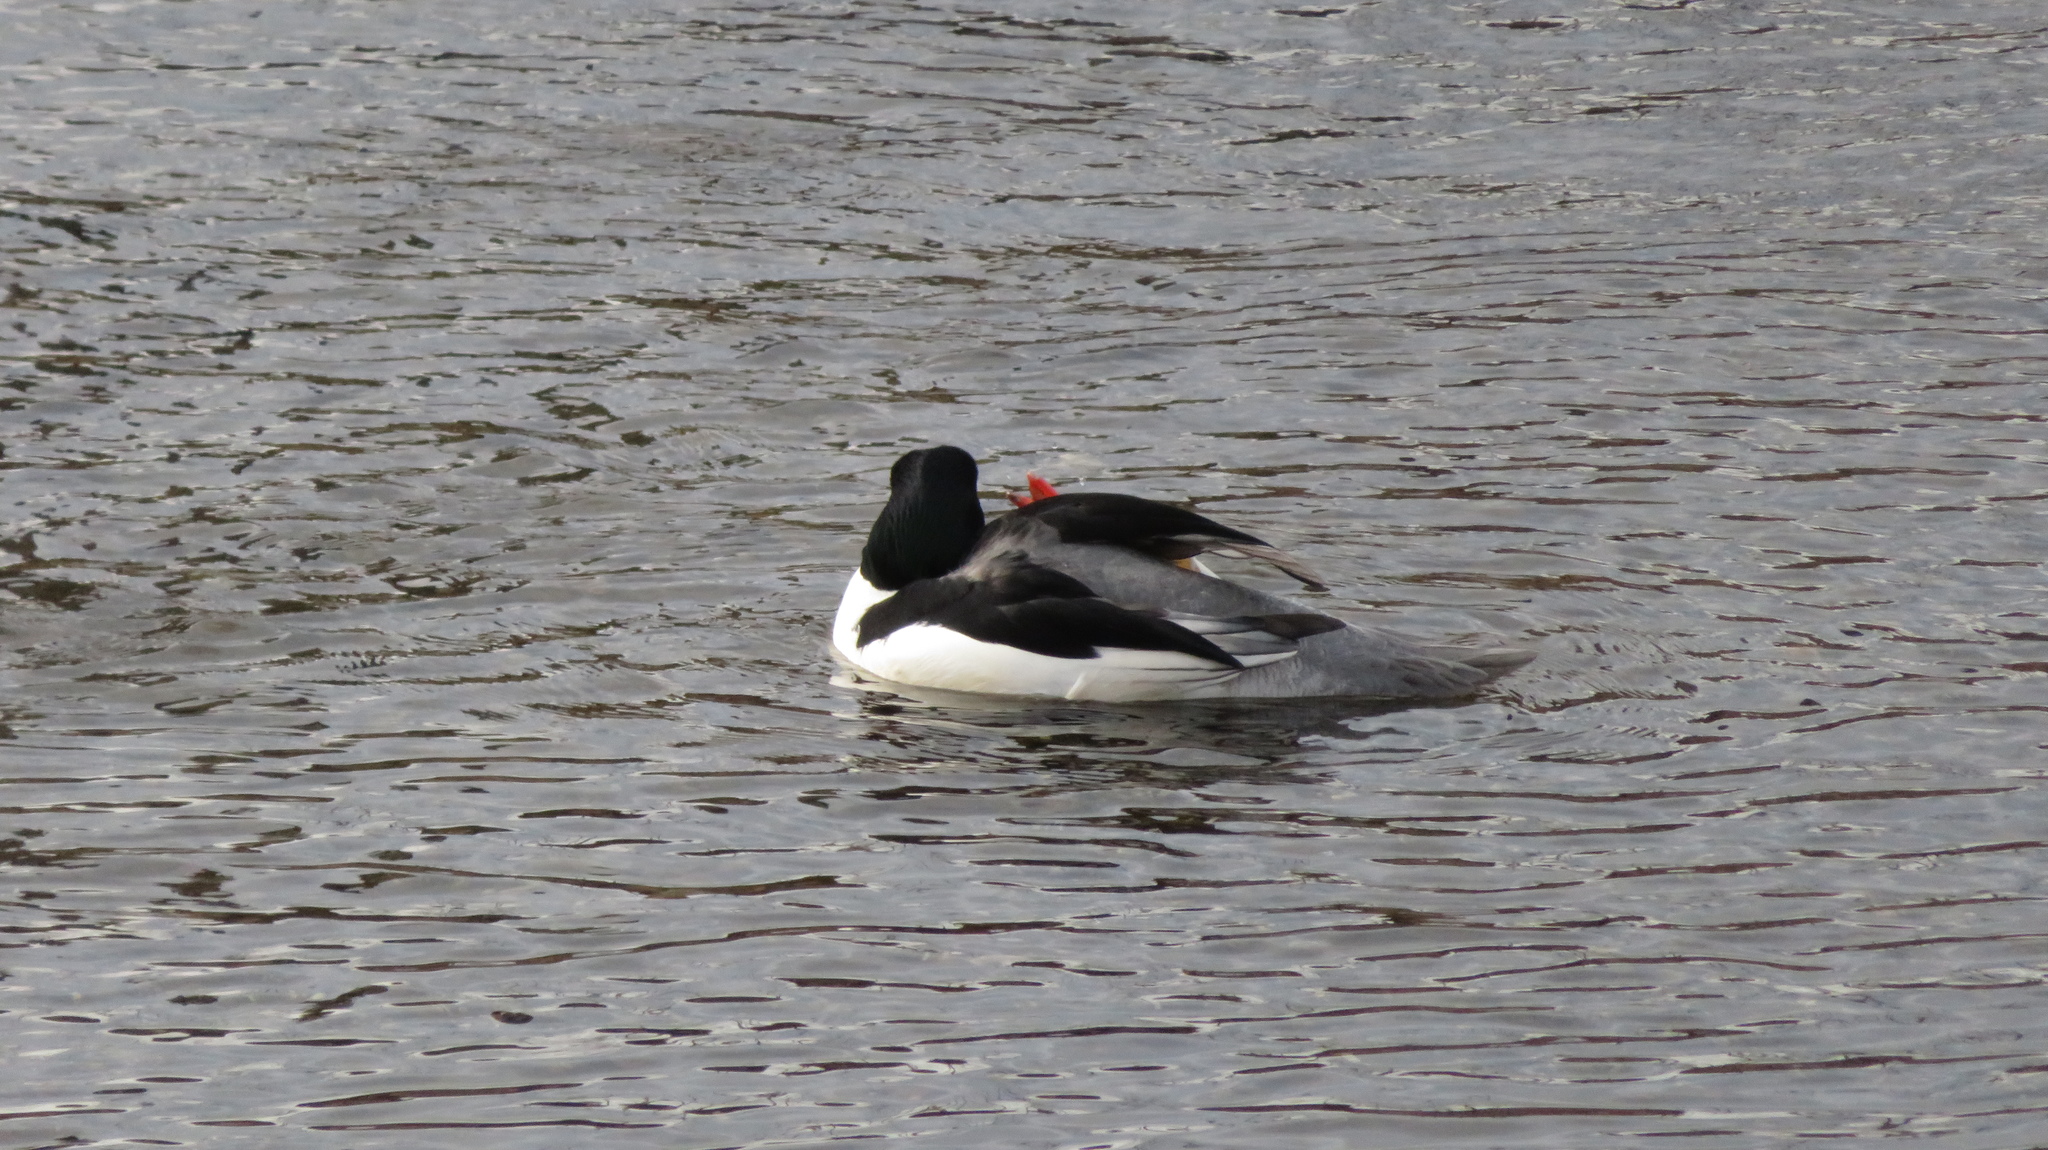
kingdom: Animalia
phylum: Chordata
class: Aves
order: Anseriformes
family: Anatidae
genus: Mergus
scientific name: Mergus merganser
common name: Common merganser
